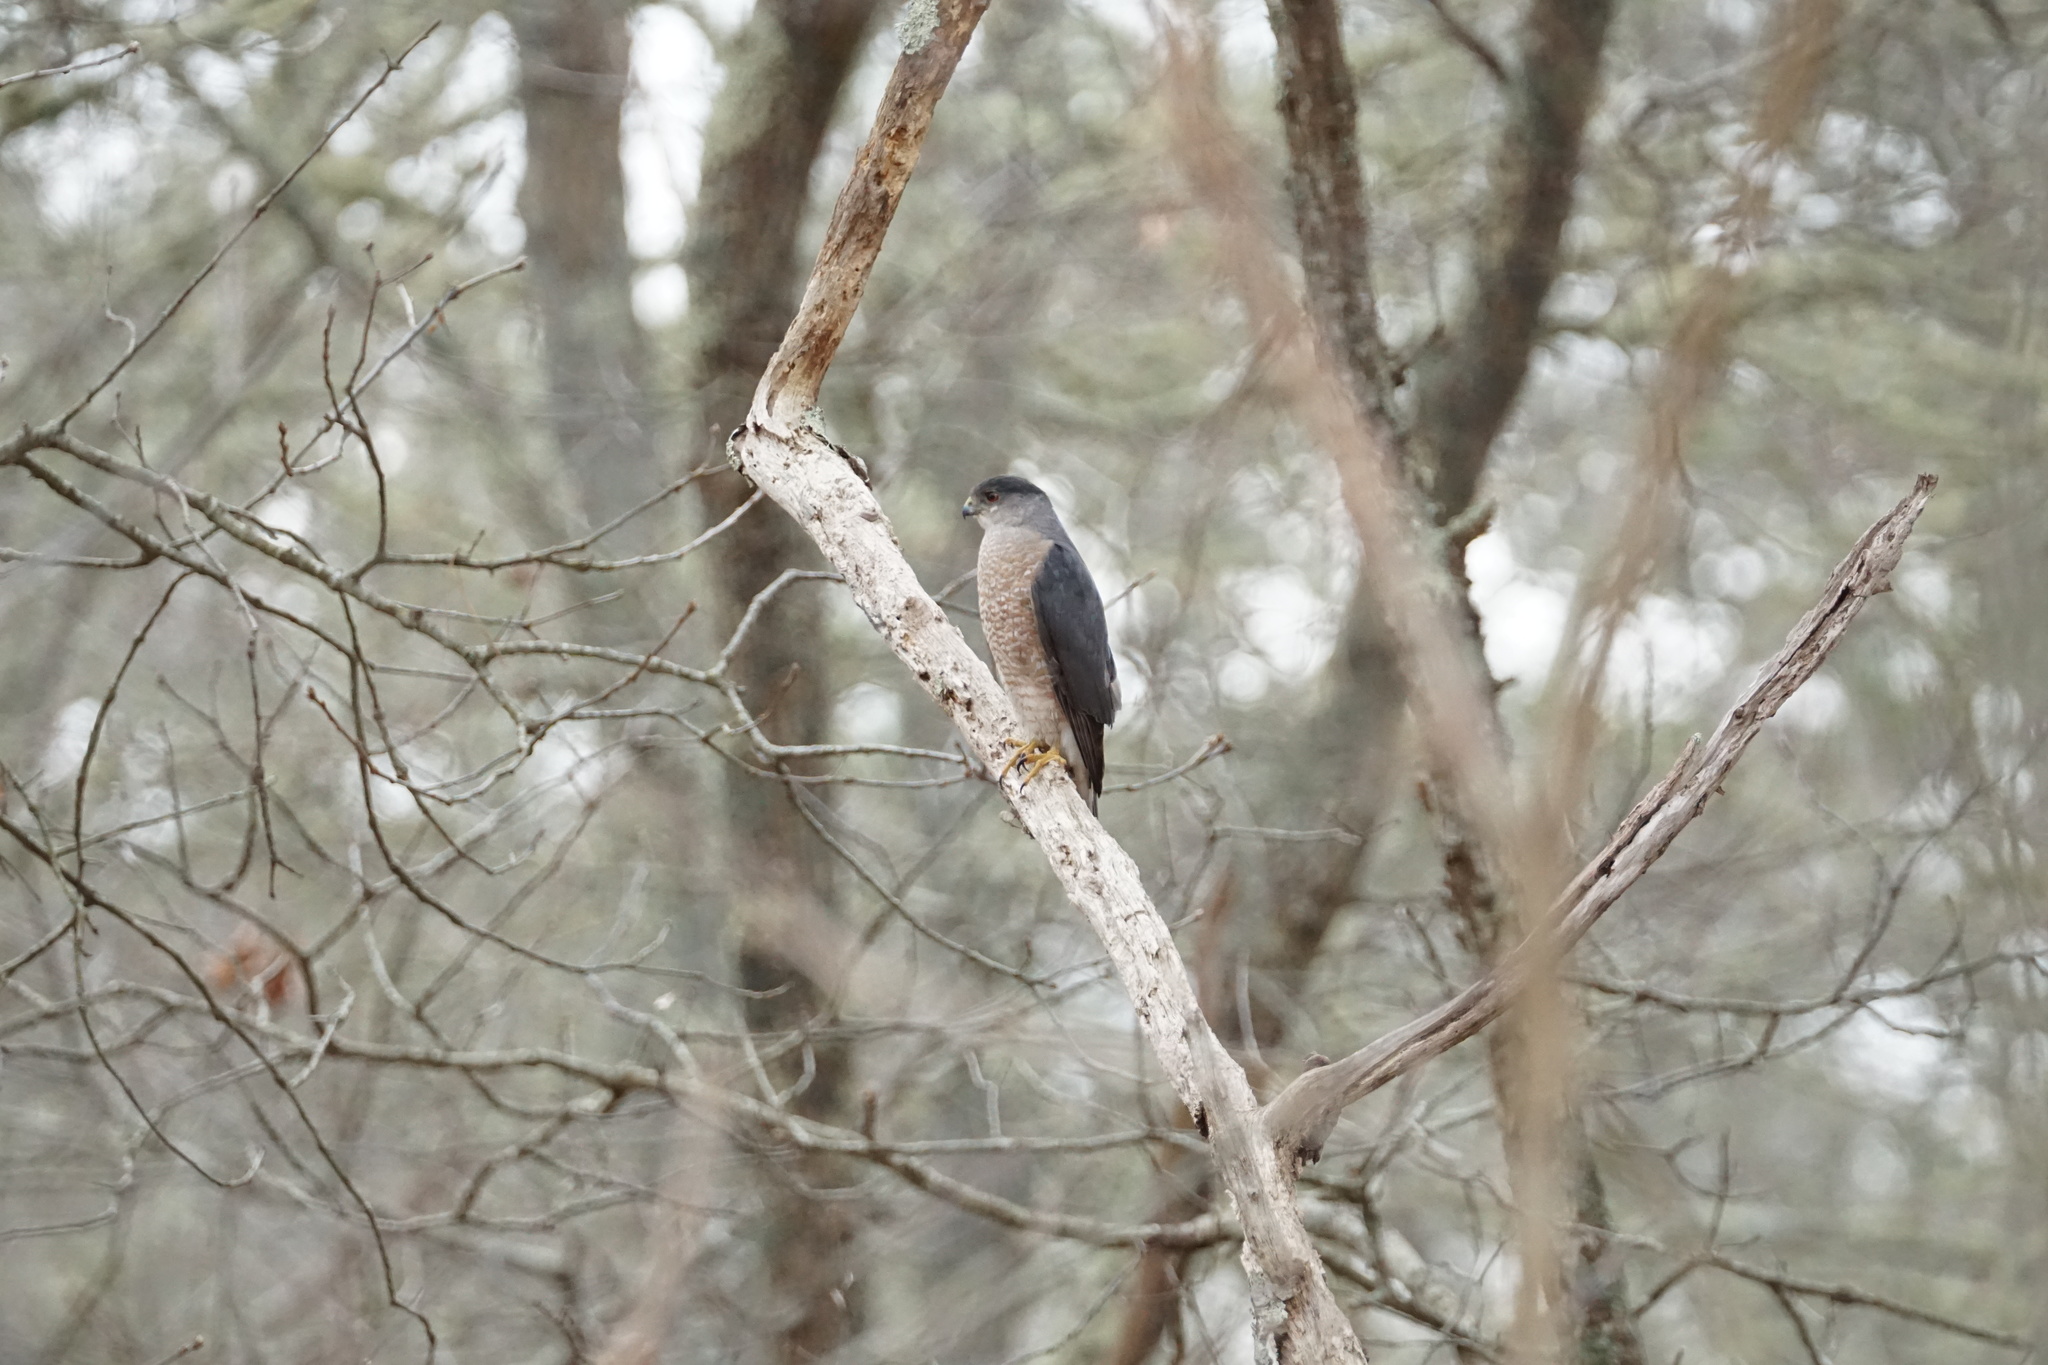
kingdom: Animalia
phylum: Chordata
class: Aves
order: Accipitriformes
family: Accipitridae
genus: Accipiter
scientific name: Accipiter cooperii
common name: Cooper's hawk
